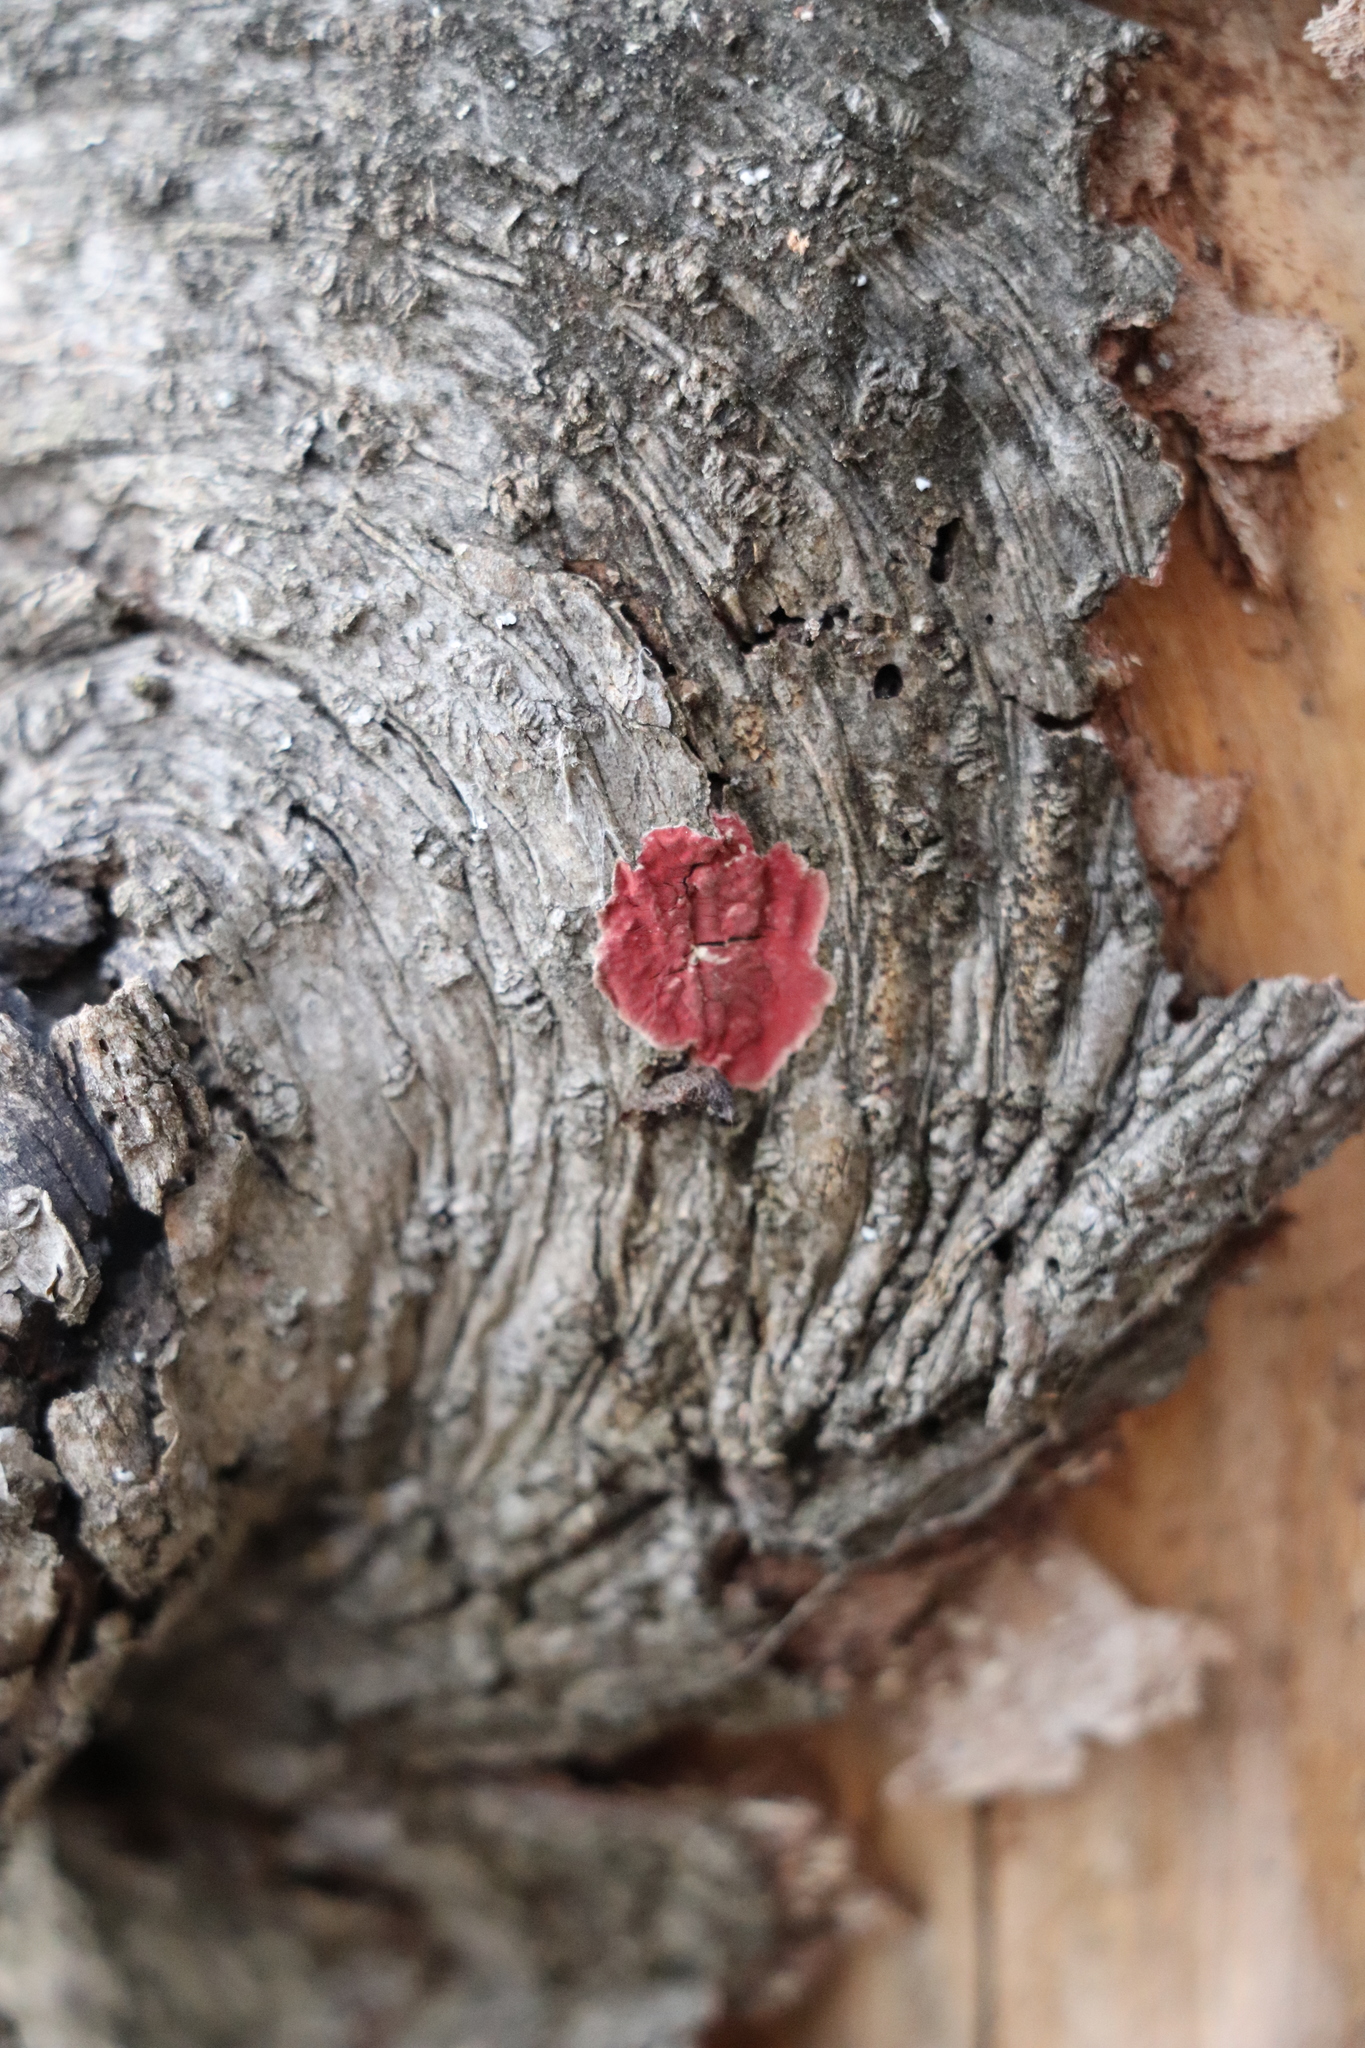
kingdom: Fungi
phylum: Basidiomycota
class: Agaricomycetes
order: Hymenochaetales
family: Hymenochaetaceae
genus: Hymenochaete
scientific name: Hymenochaete cruenta
